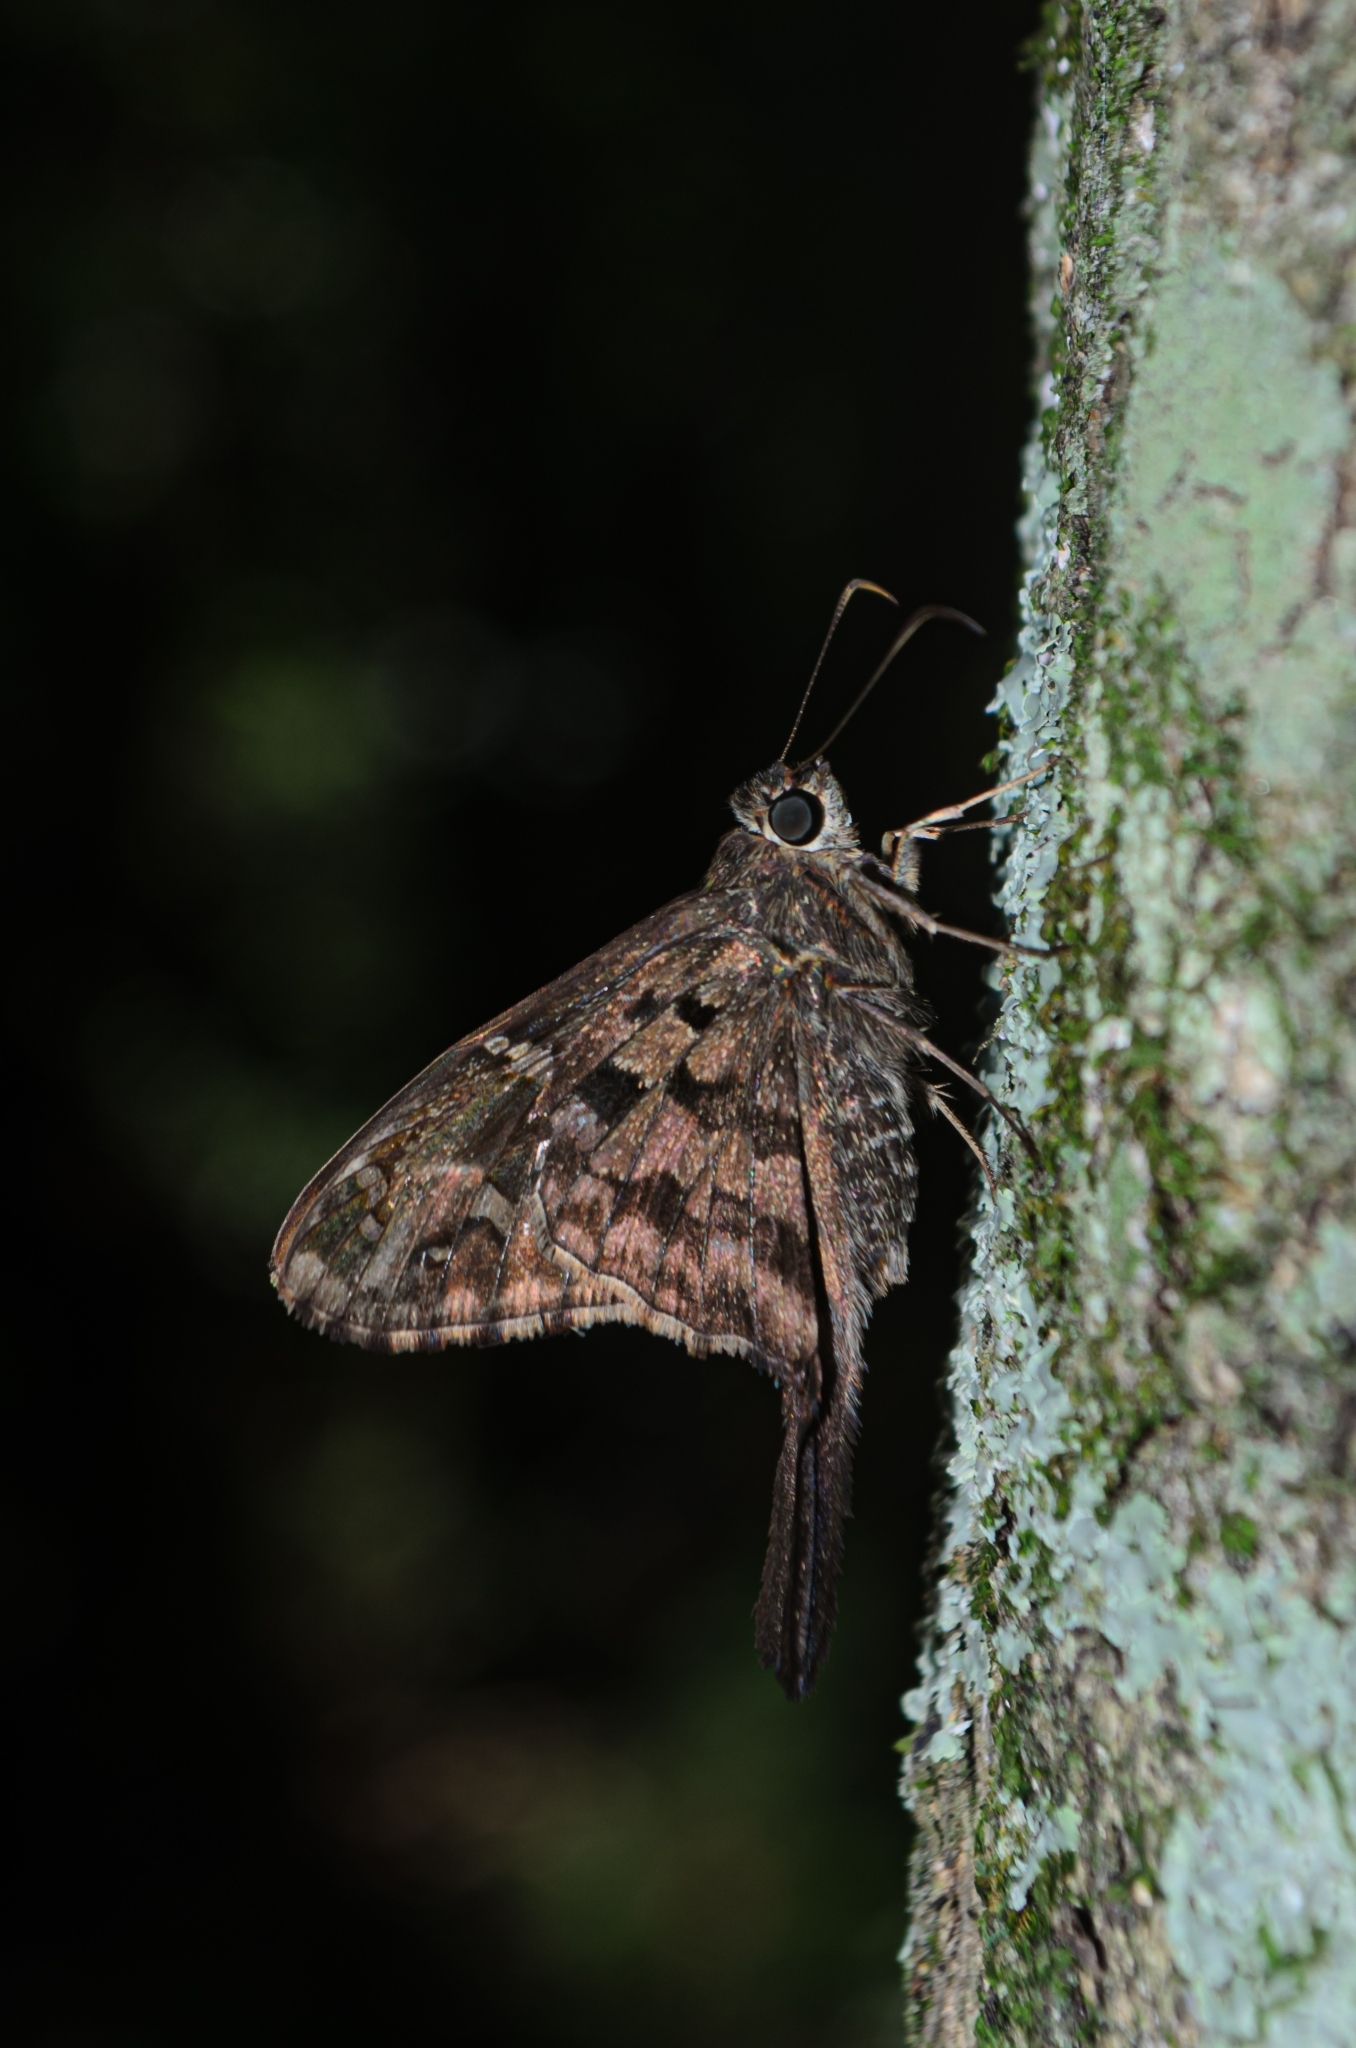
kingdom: Animalia
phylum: Arthropoda
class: Insecta
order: Lepidoptera
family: Hesperiidae
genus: Thorybes
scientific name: Thorybes
